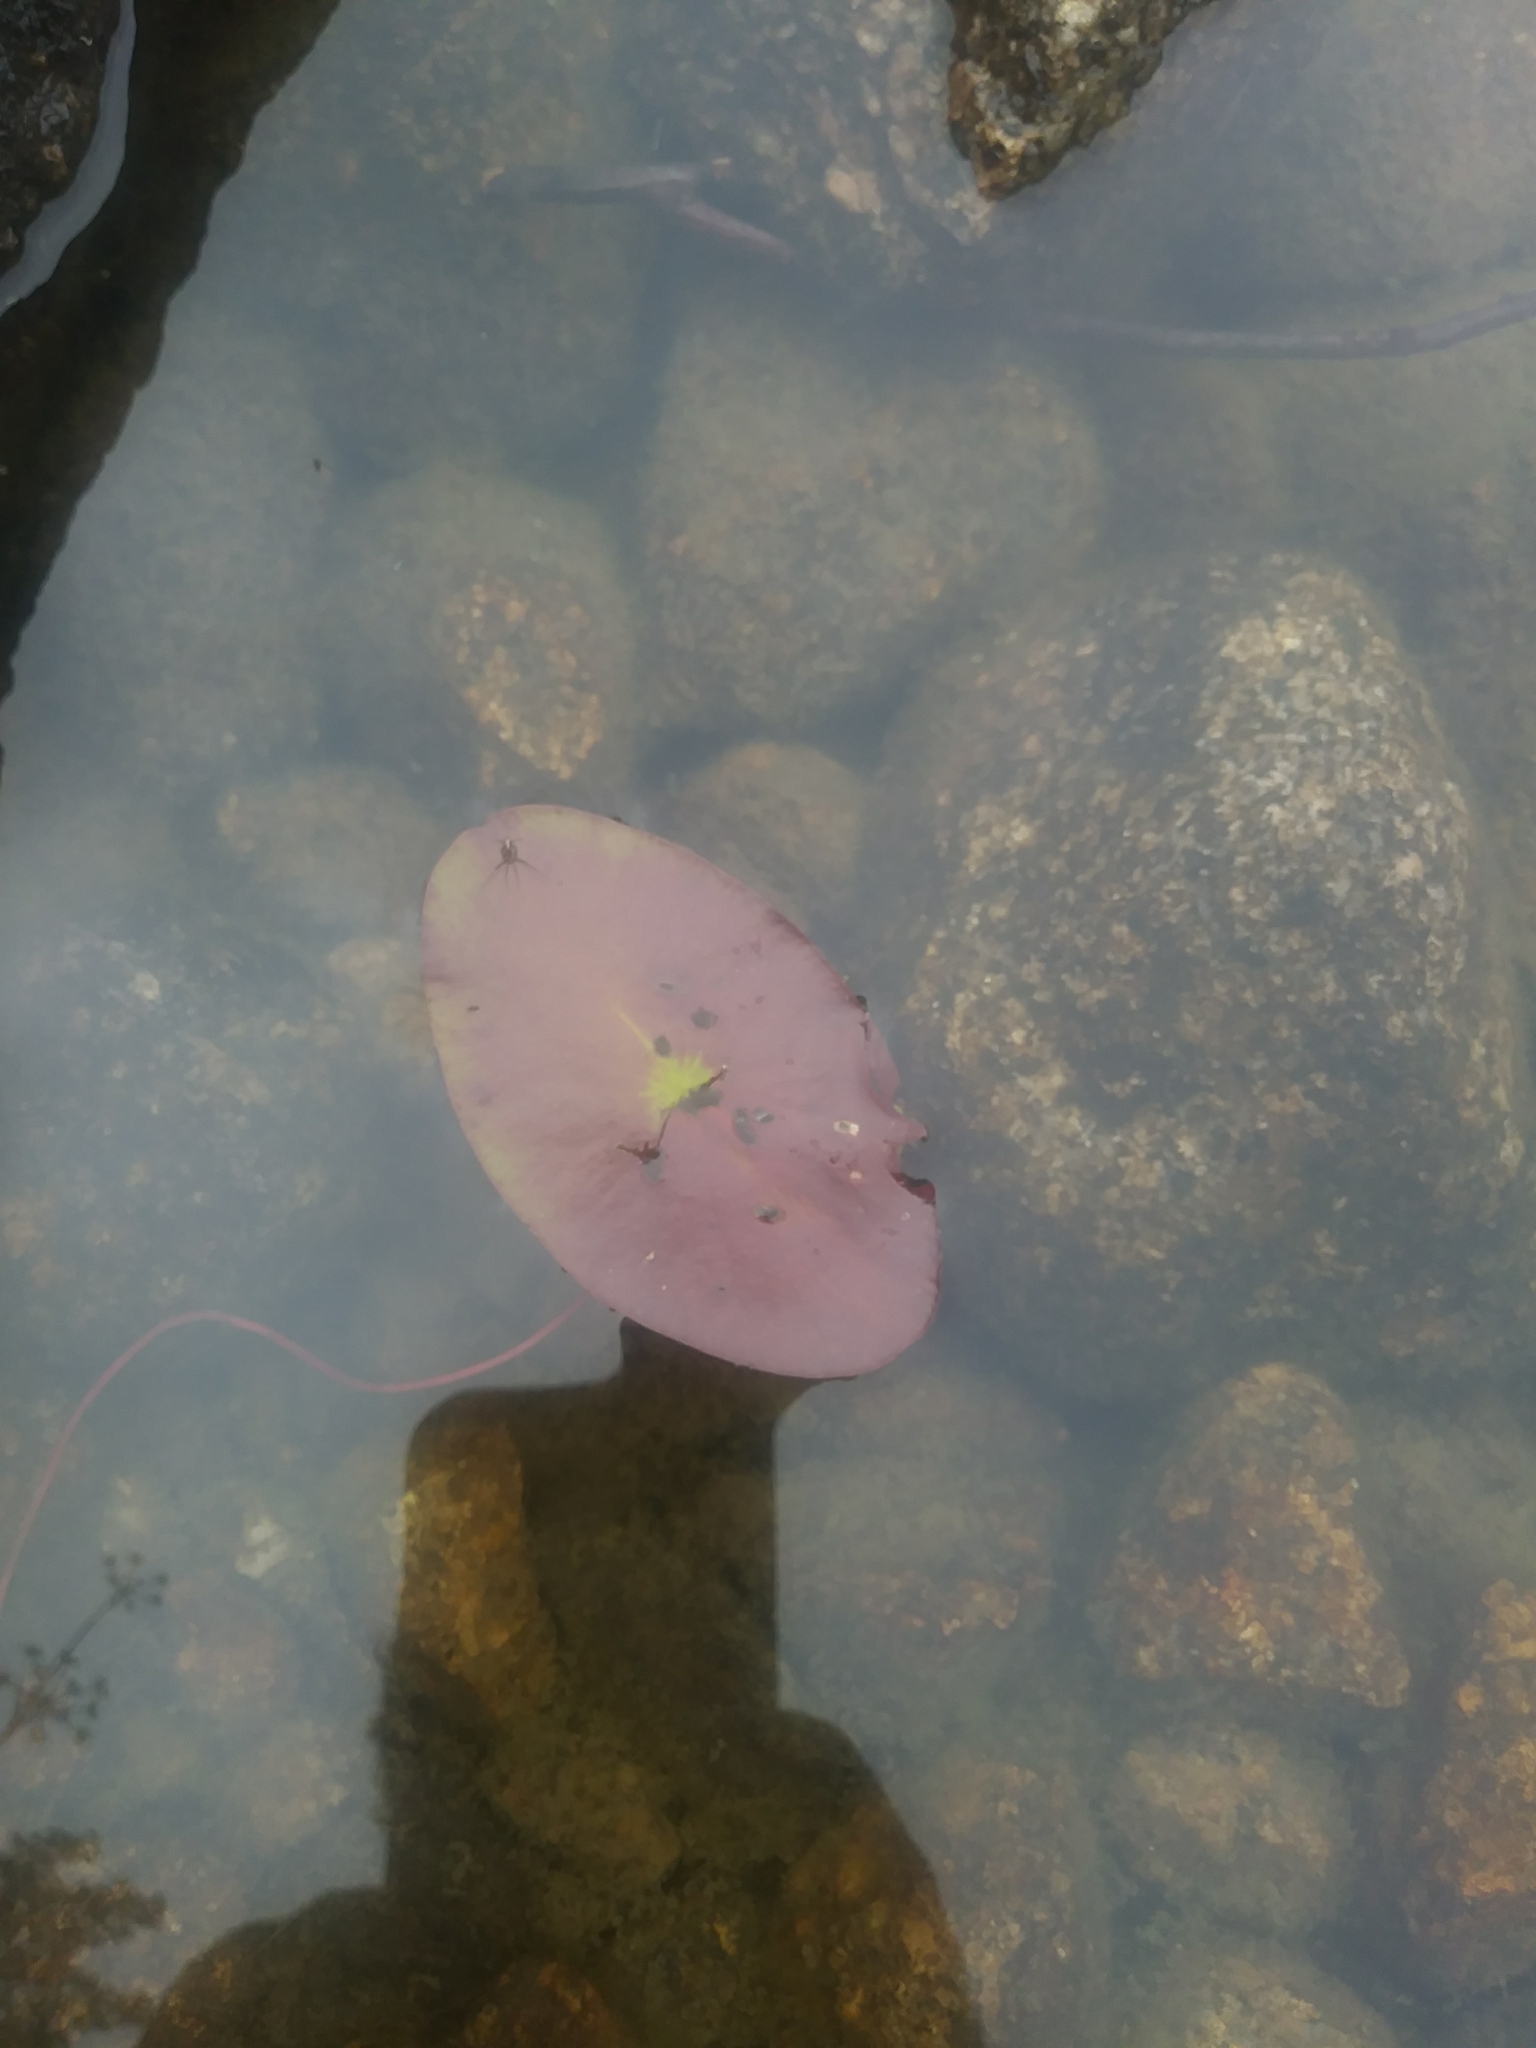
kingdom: Plantae
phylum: Tracheophyta
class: Magnoliopsida
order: Nymphaeales
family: Cabombaceae
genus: Brasenia
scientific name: Brasenia schreberi
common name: Water-shield
